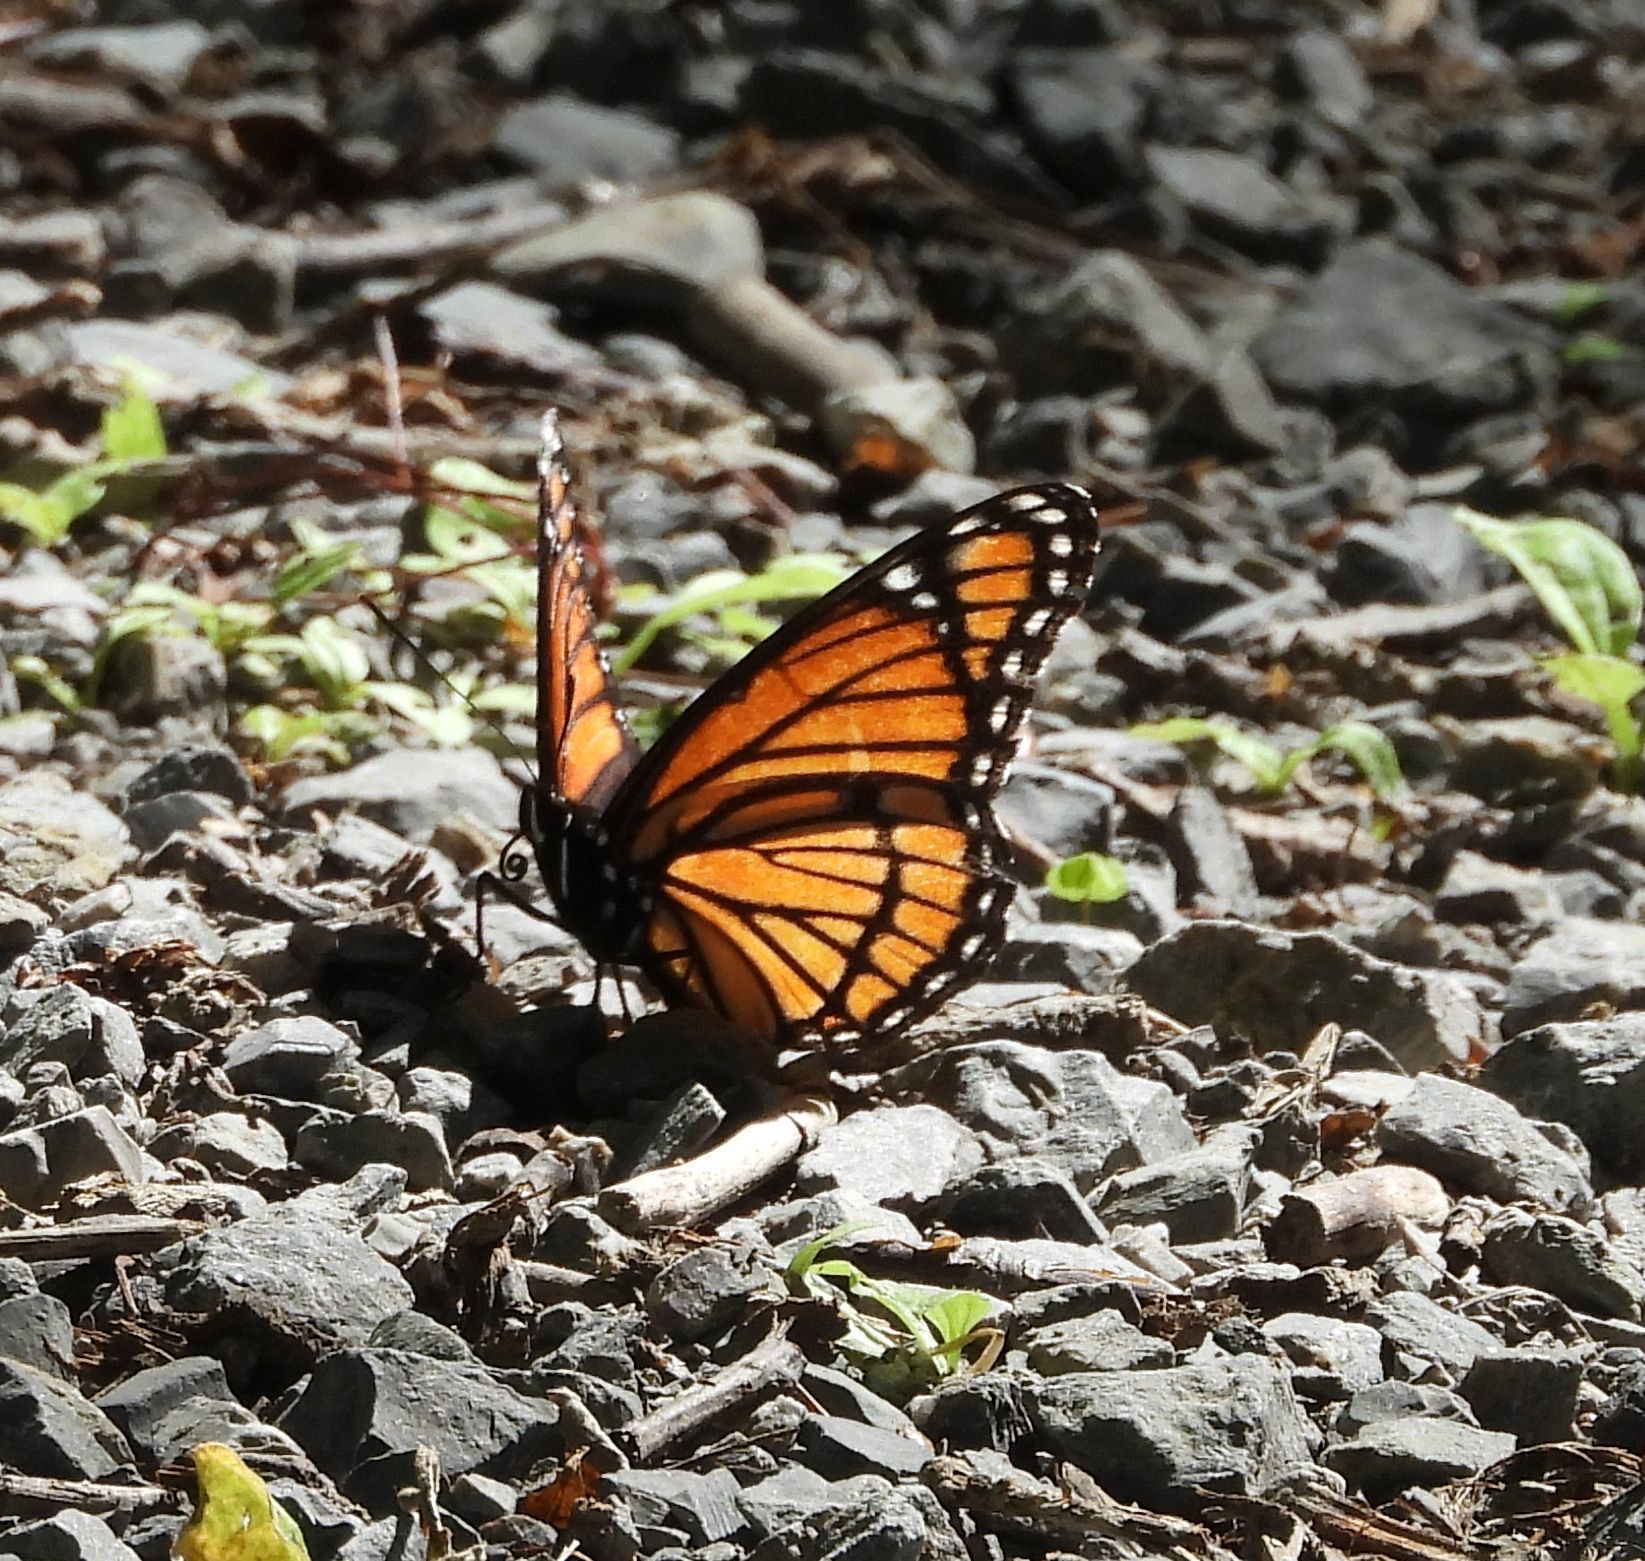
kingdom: Animalia
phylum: Arthropoda
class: Insecta
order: Lepidoptera
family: Nymphalidae
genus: Limenitis
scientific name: Limenitis archippus
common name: Viceroy
